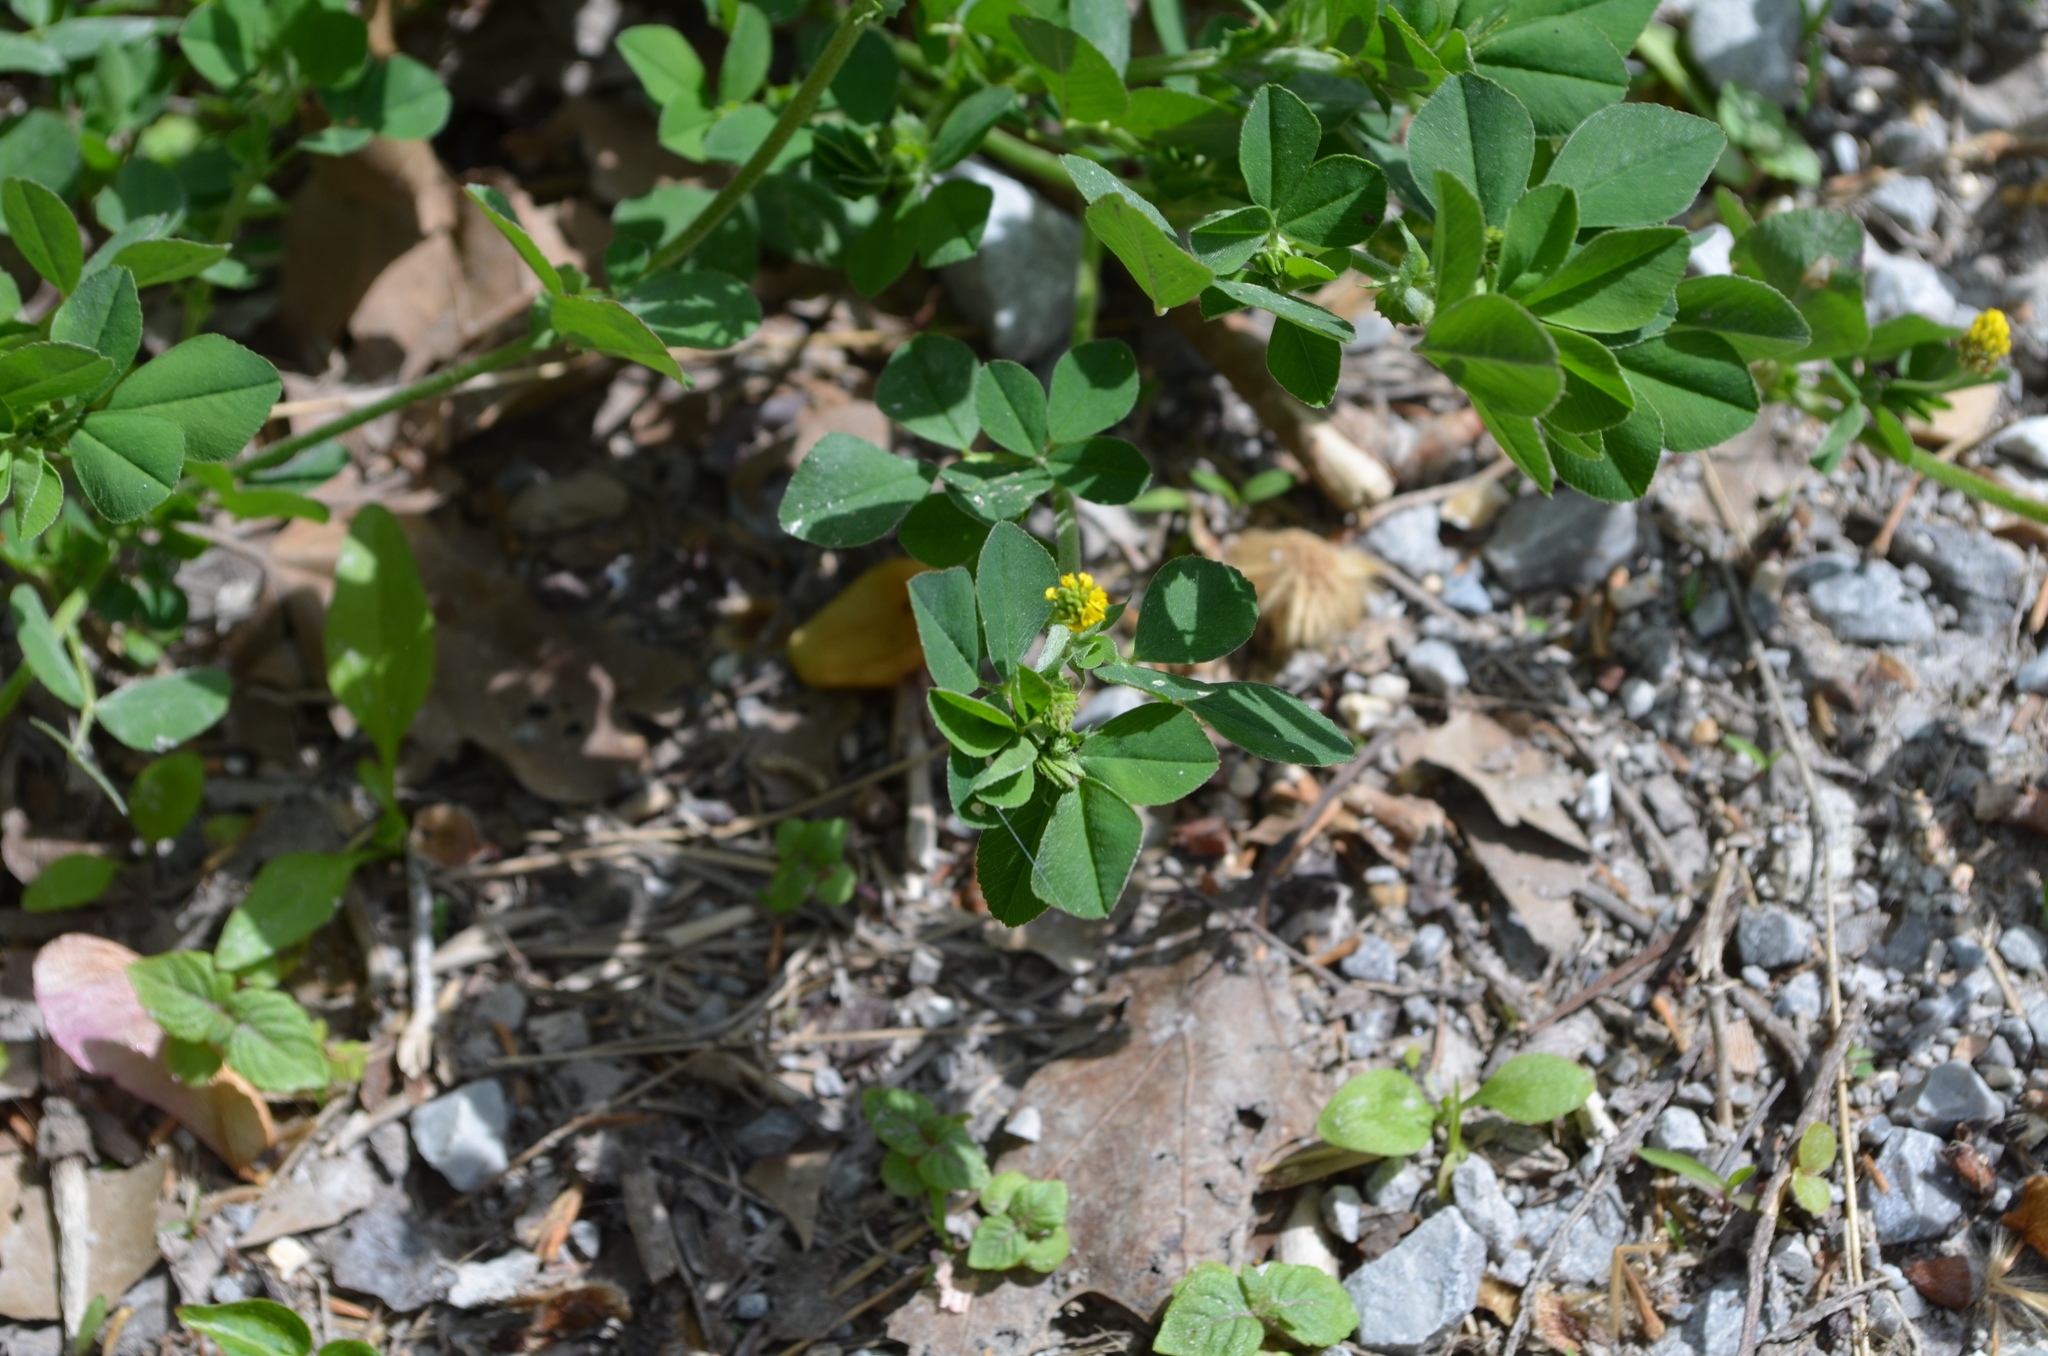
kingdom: Plantae
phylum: Tracheophyta
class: Magnoliopsida
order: Fabales
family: Fabaceae
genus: Medicago
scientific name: Medicago lupulina
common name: Black medick
